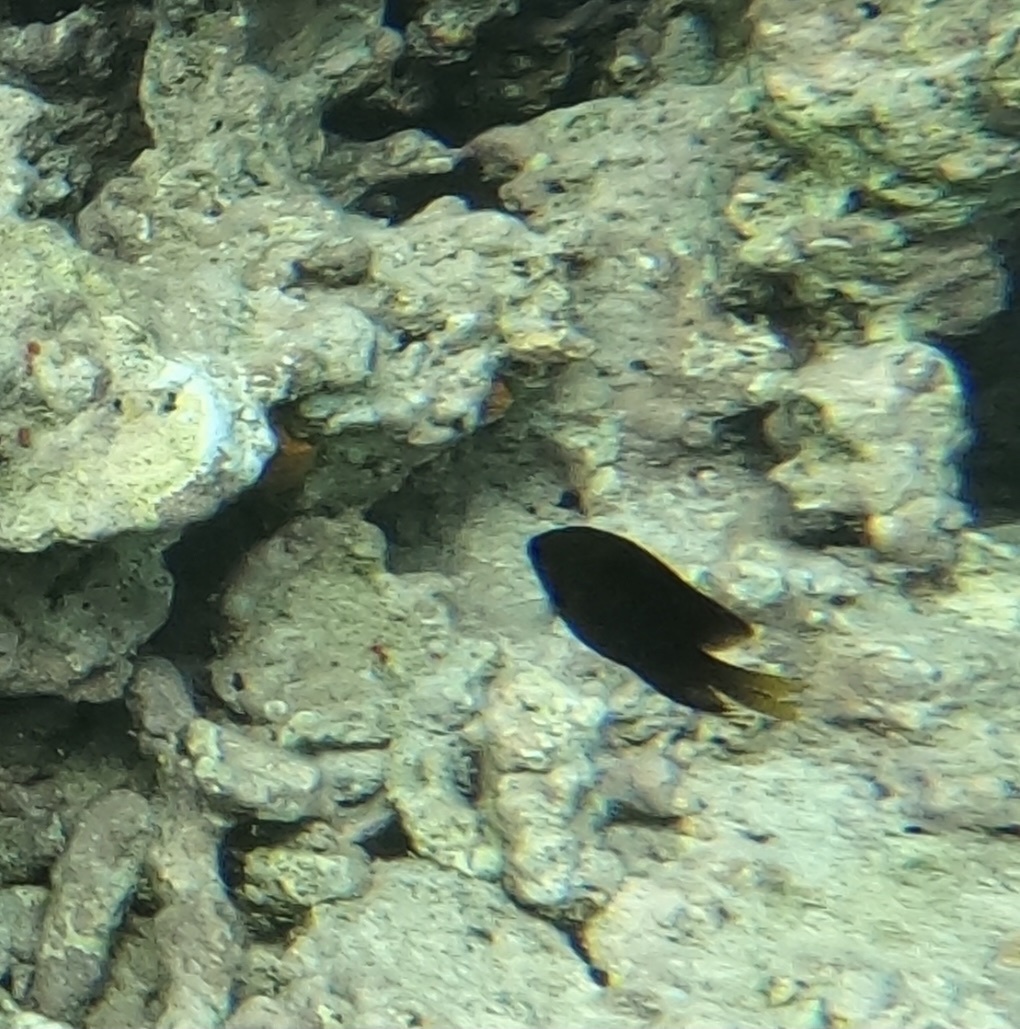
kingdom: Animalia
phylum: Chordata
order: Perciformes
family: Pomacentridae
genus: Stegastes
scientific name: Stegastes diencaeus
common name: Longfin damselfish
